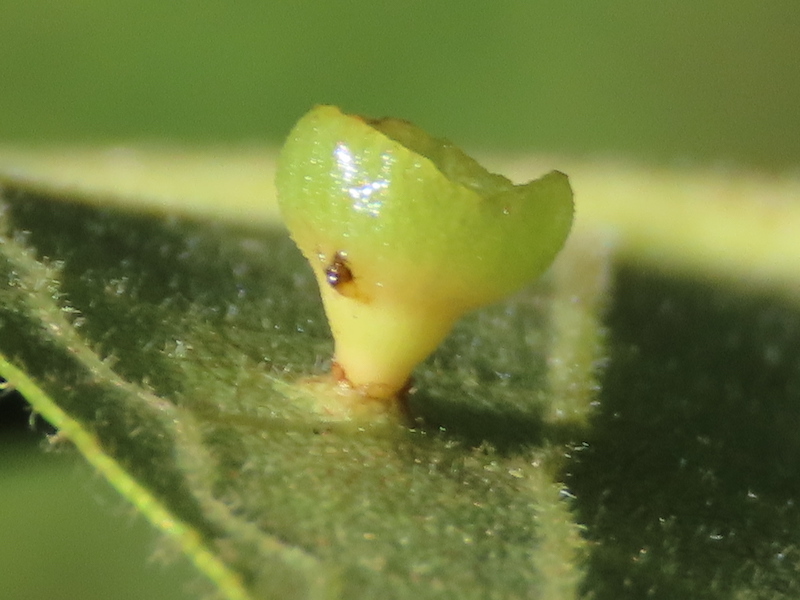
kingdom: Animalia
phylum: Arthropoda
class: Insecta
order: Diptera
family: Cecidomyiidae
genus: Caryomyia
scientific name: Caryomyia flaticrustum
